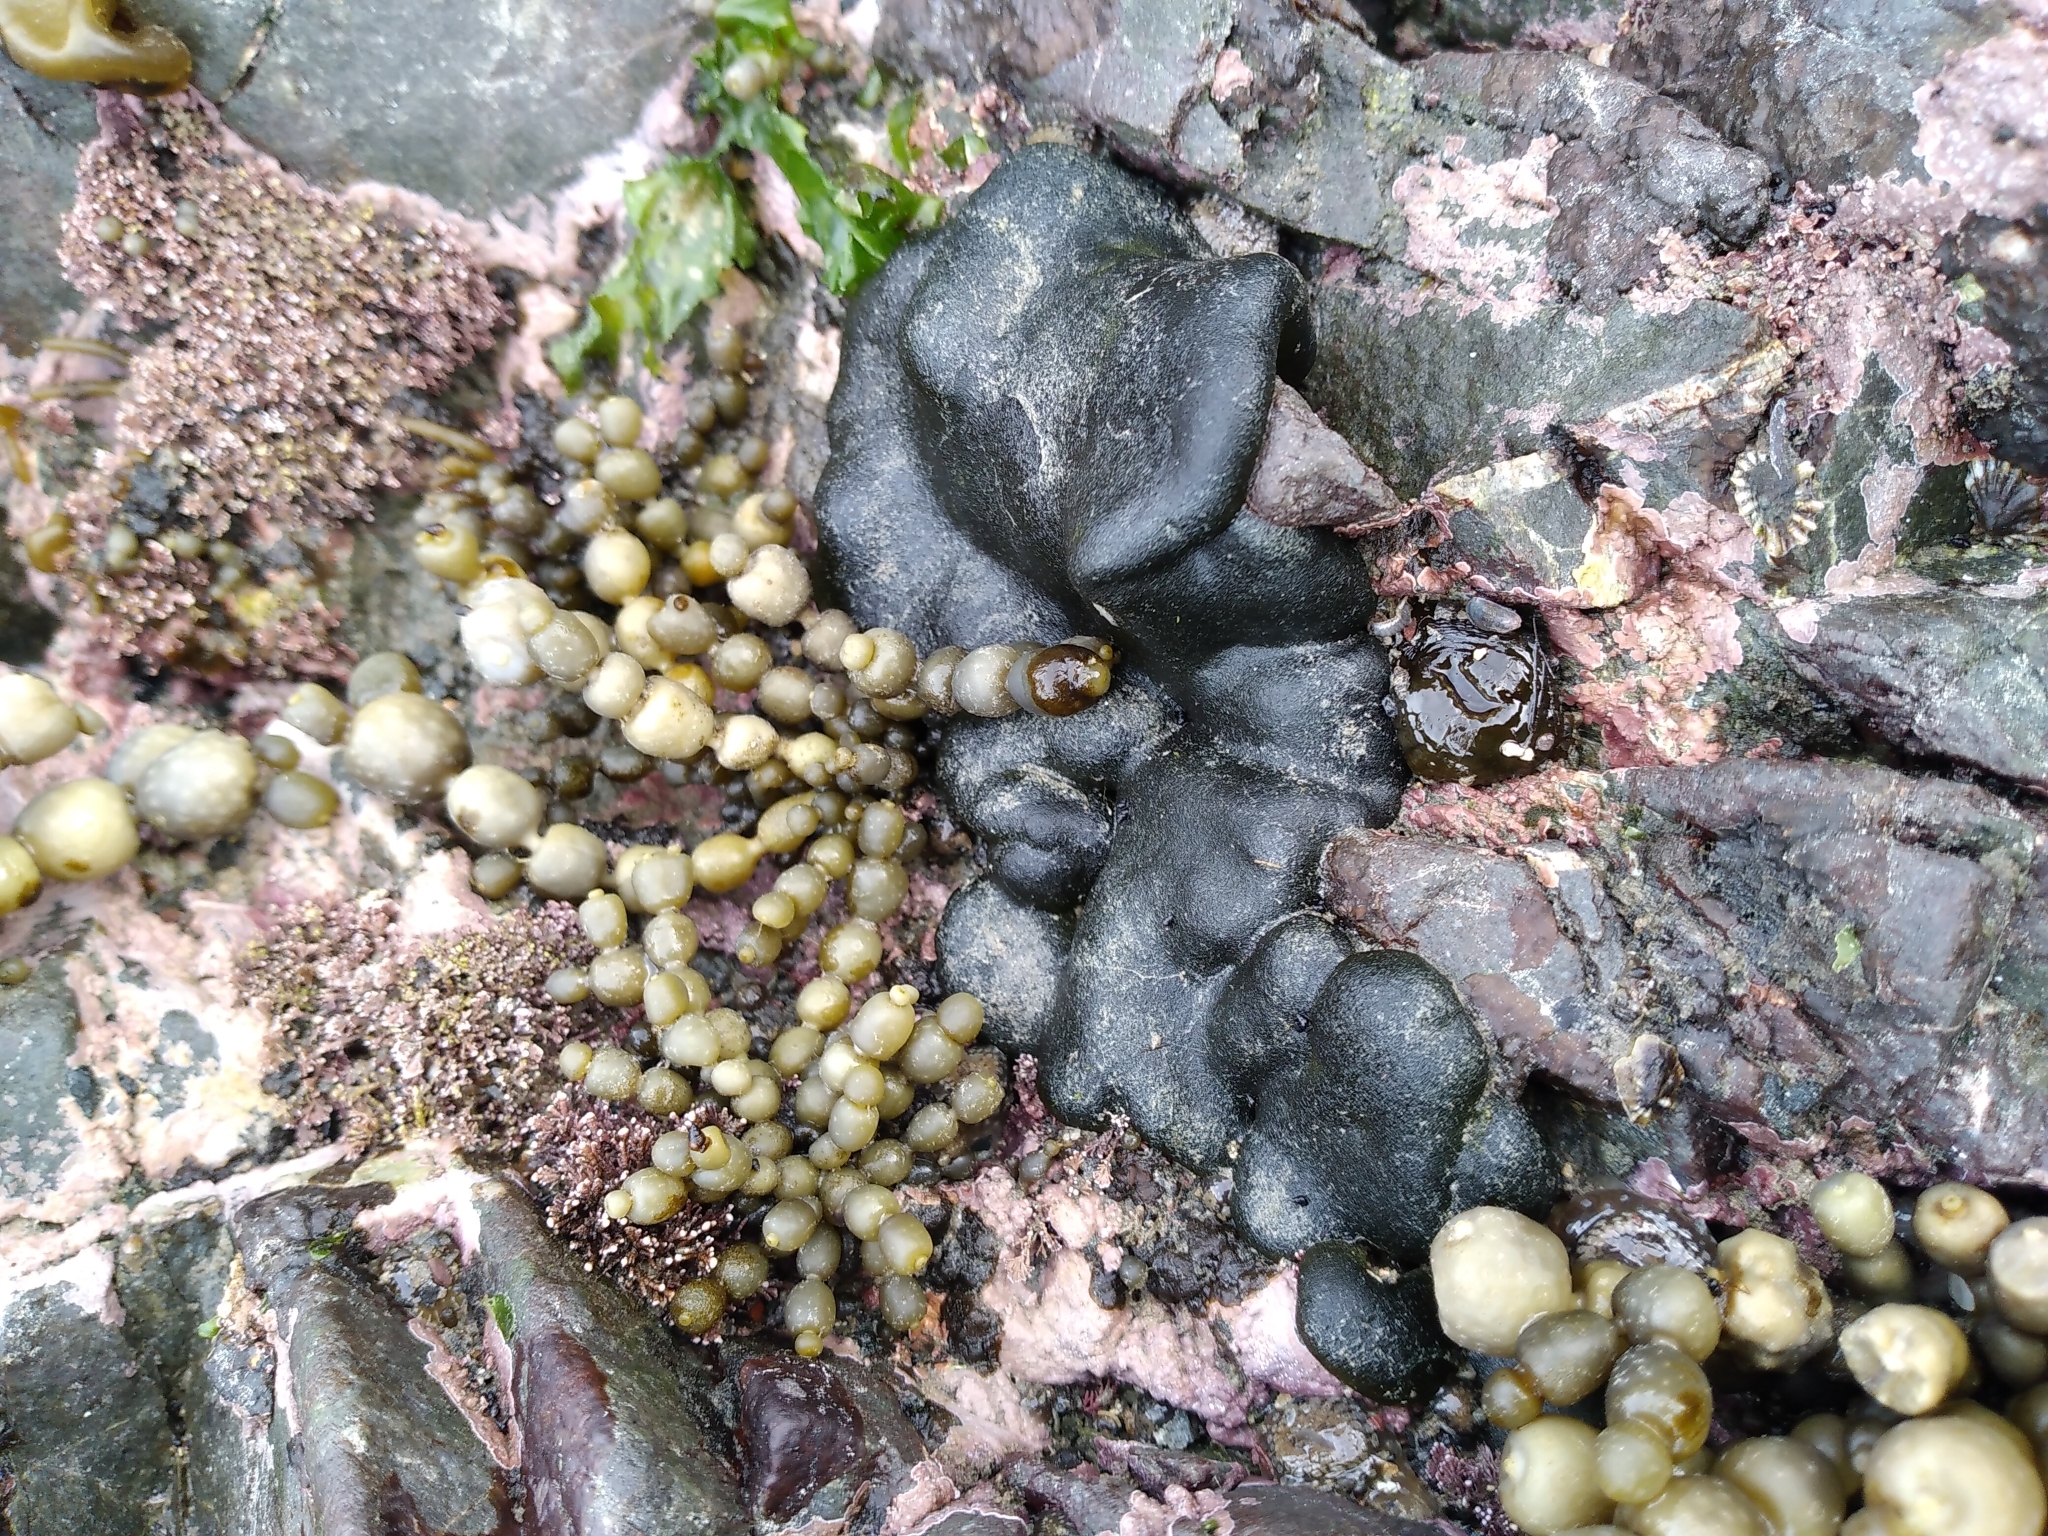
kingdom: Plantae
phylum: Chlorophyta
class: Ulvophyceae
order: Bryopsidales
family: Codiaceae
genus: Codium
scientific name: Codium convolutum
